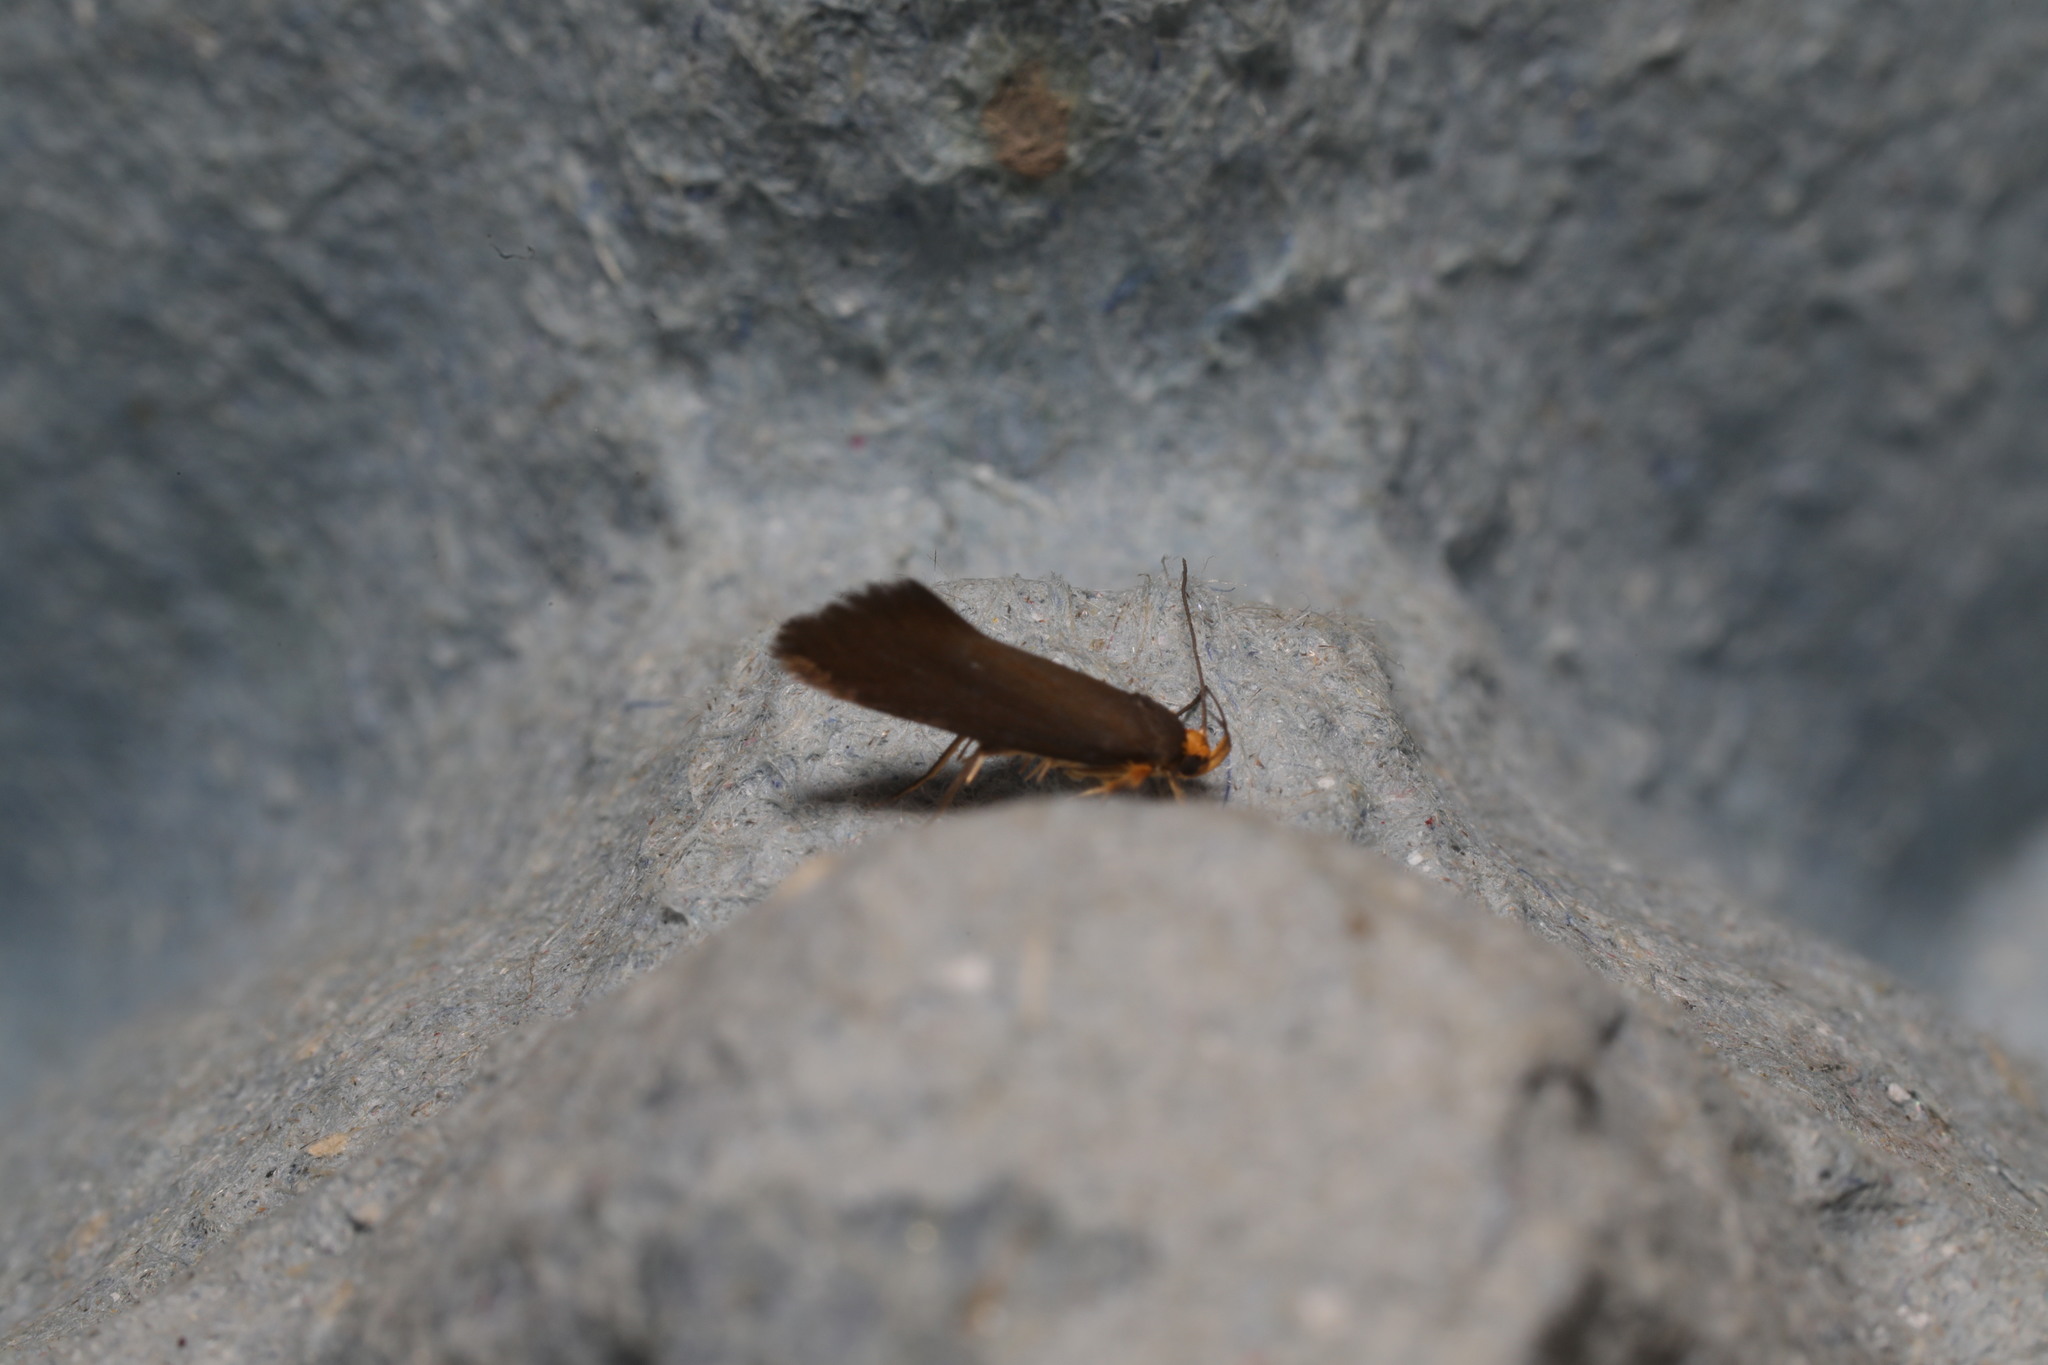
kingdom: Animalia
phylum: Arthropoda
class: Insecta
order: Lepidoptera
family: Oecophoridae
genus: Borkhausenia
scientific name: Borkhausenia Crassa unitella
